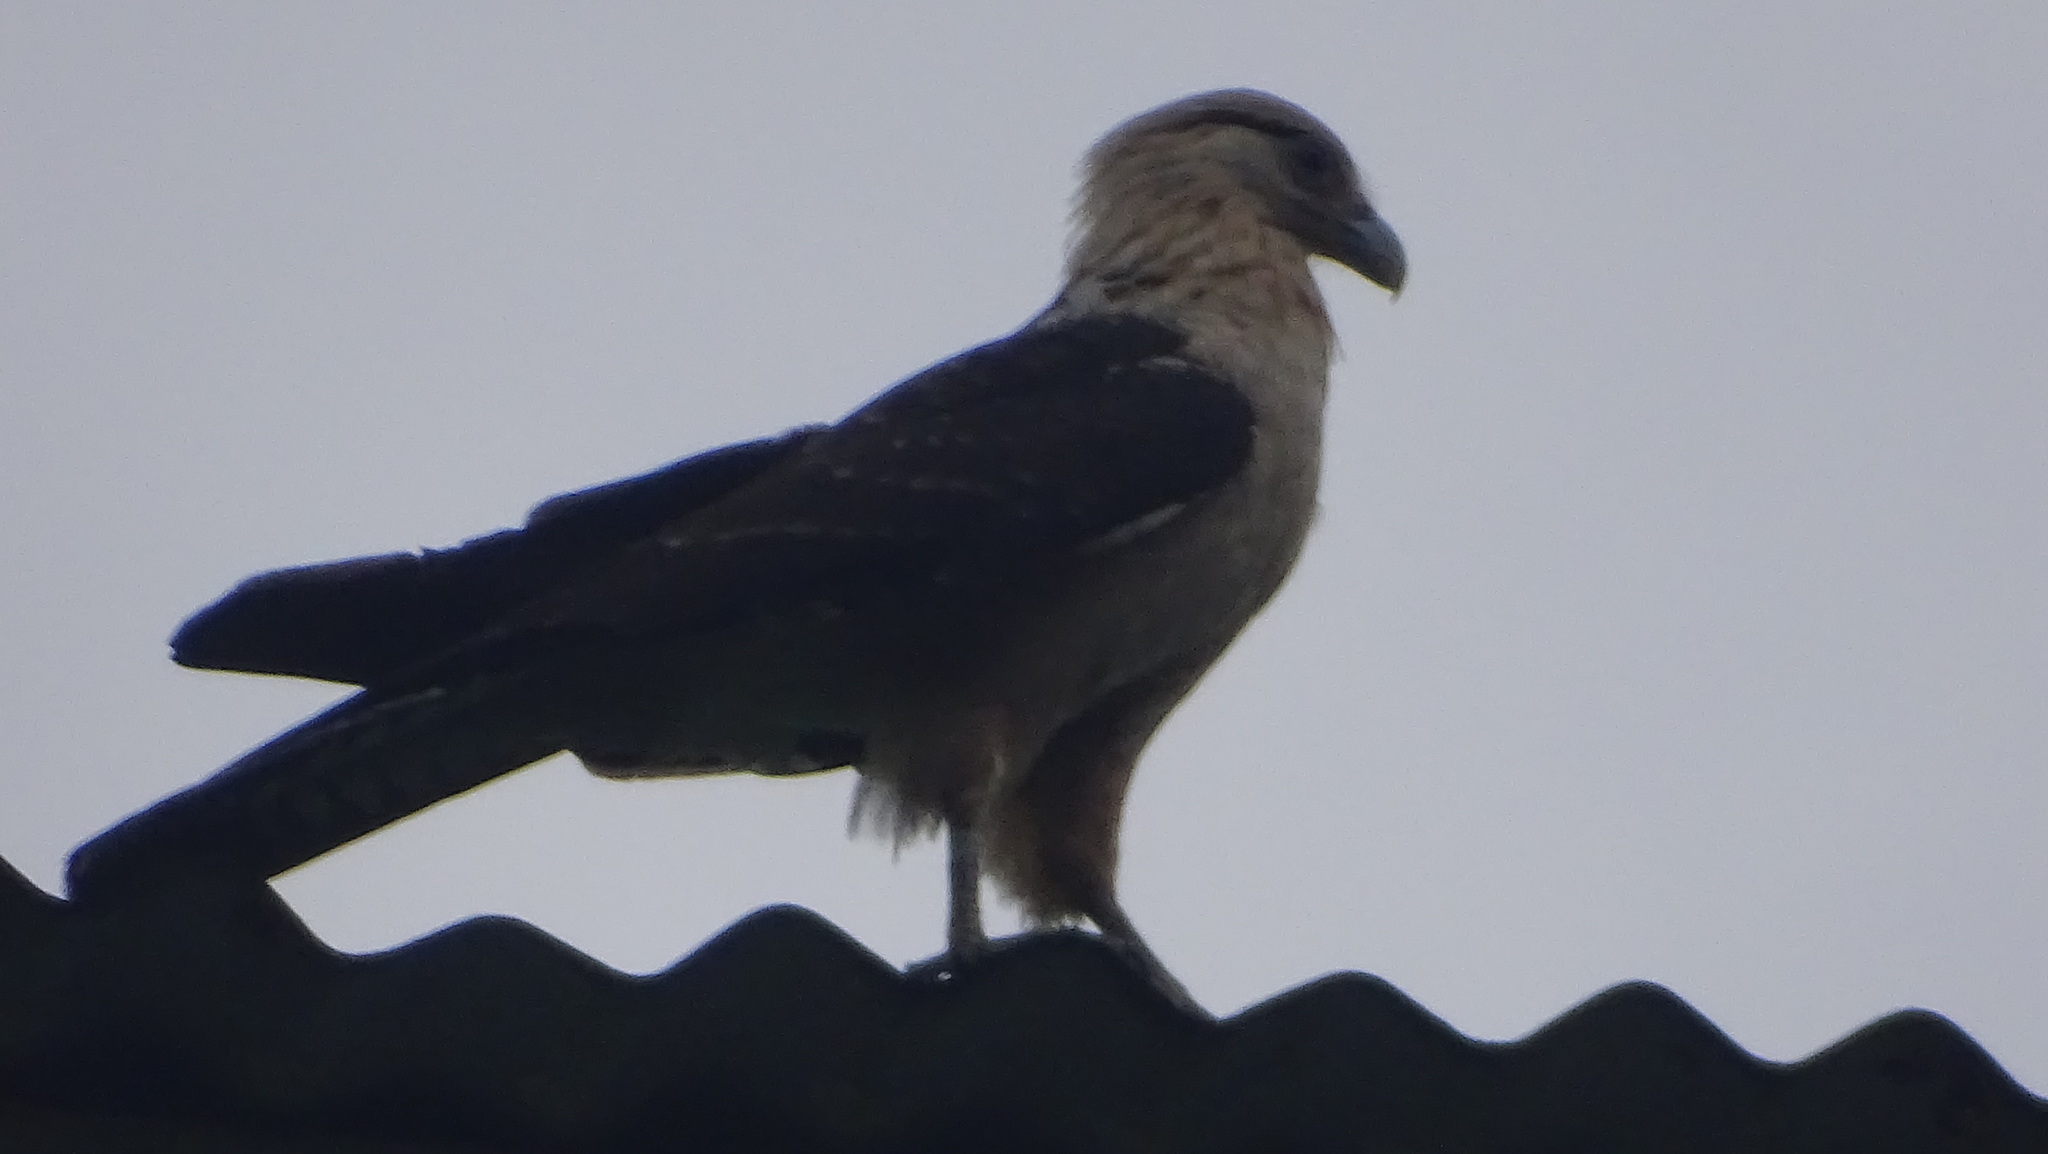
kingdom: Animalia
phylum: Chordata
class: Aves
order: Falconiformes
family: Falconidae
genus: Daptrius
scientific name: Daptrius
